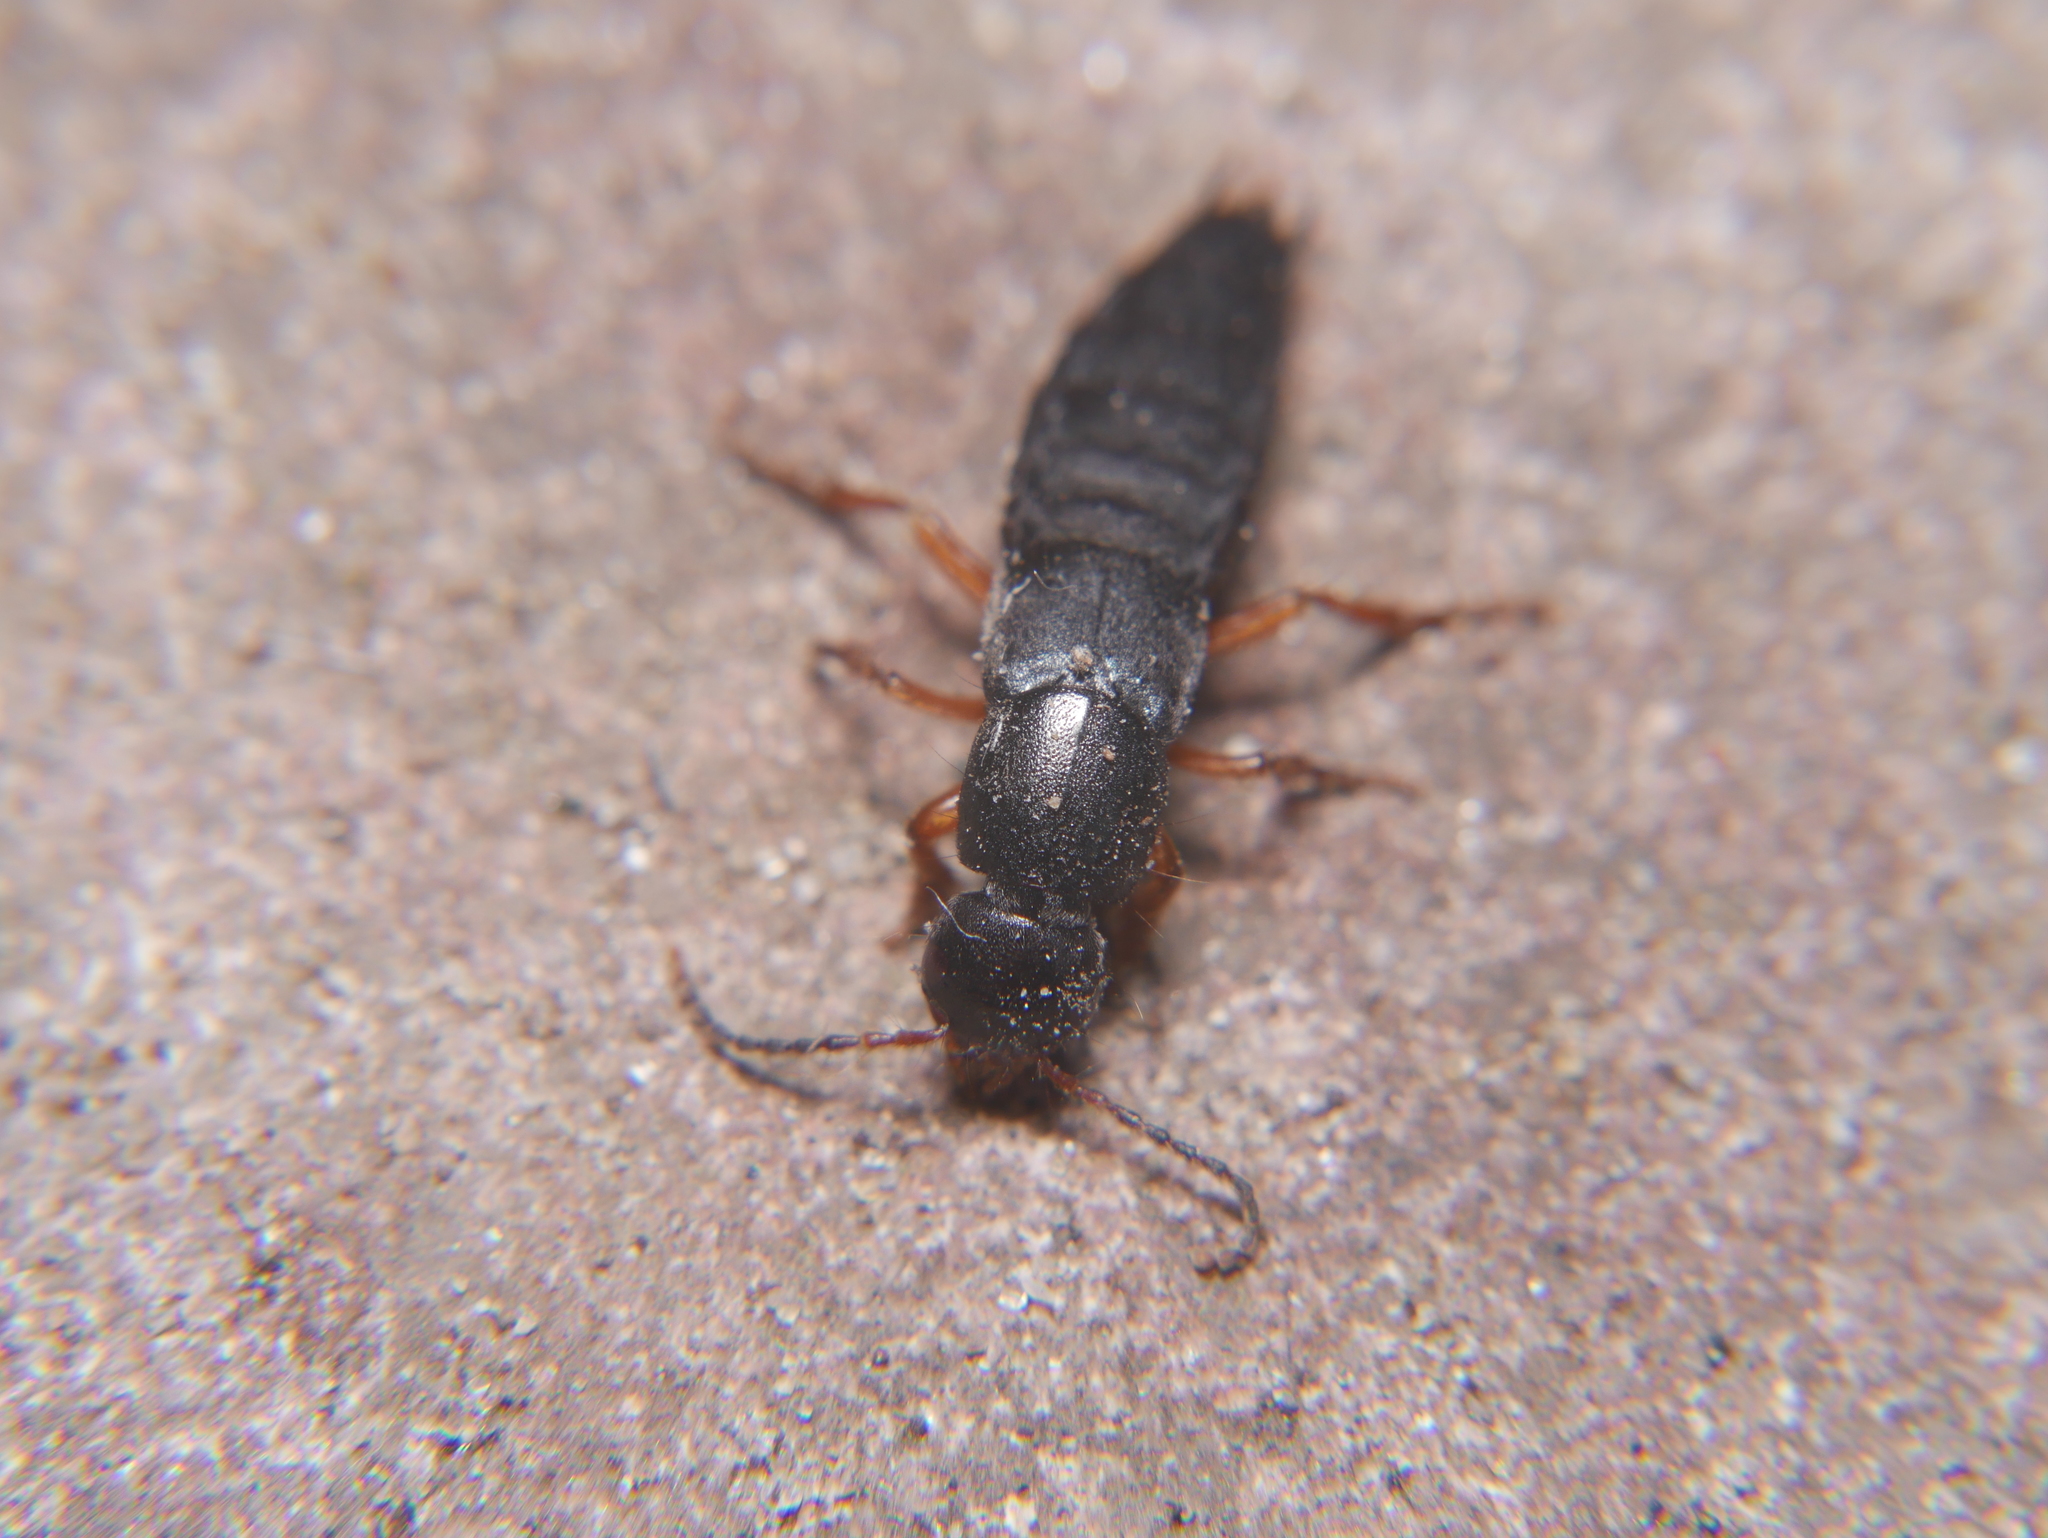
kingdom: Animalia
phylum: Arthropoda
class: Insecta
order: Coleoptera
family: Staphylinidae
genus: Ocypus
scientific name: Ocypus brunnipes
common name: Rove beetle
